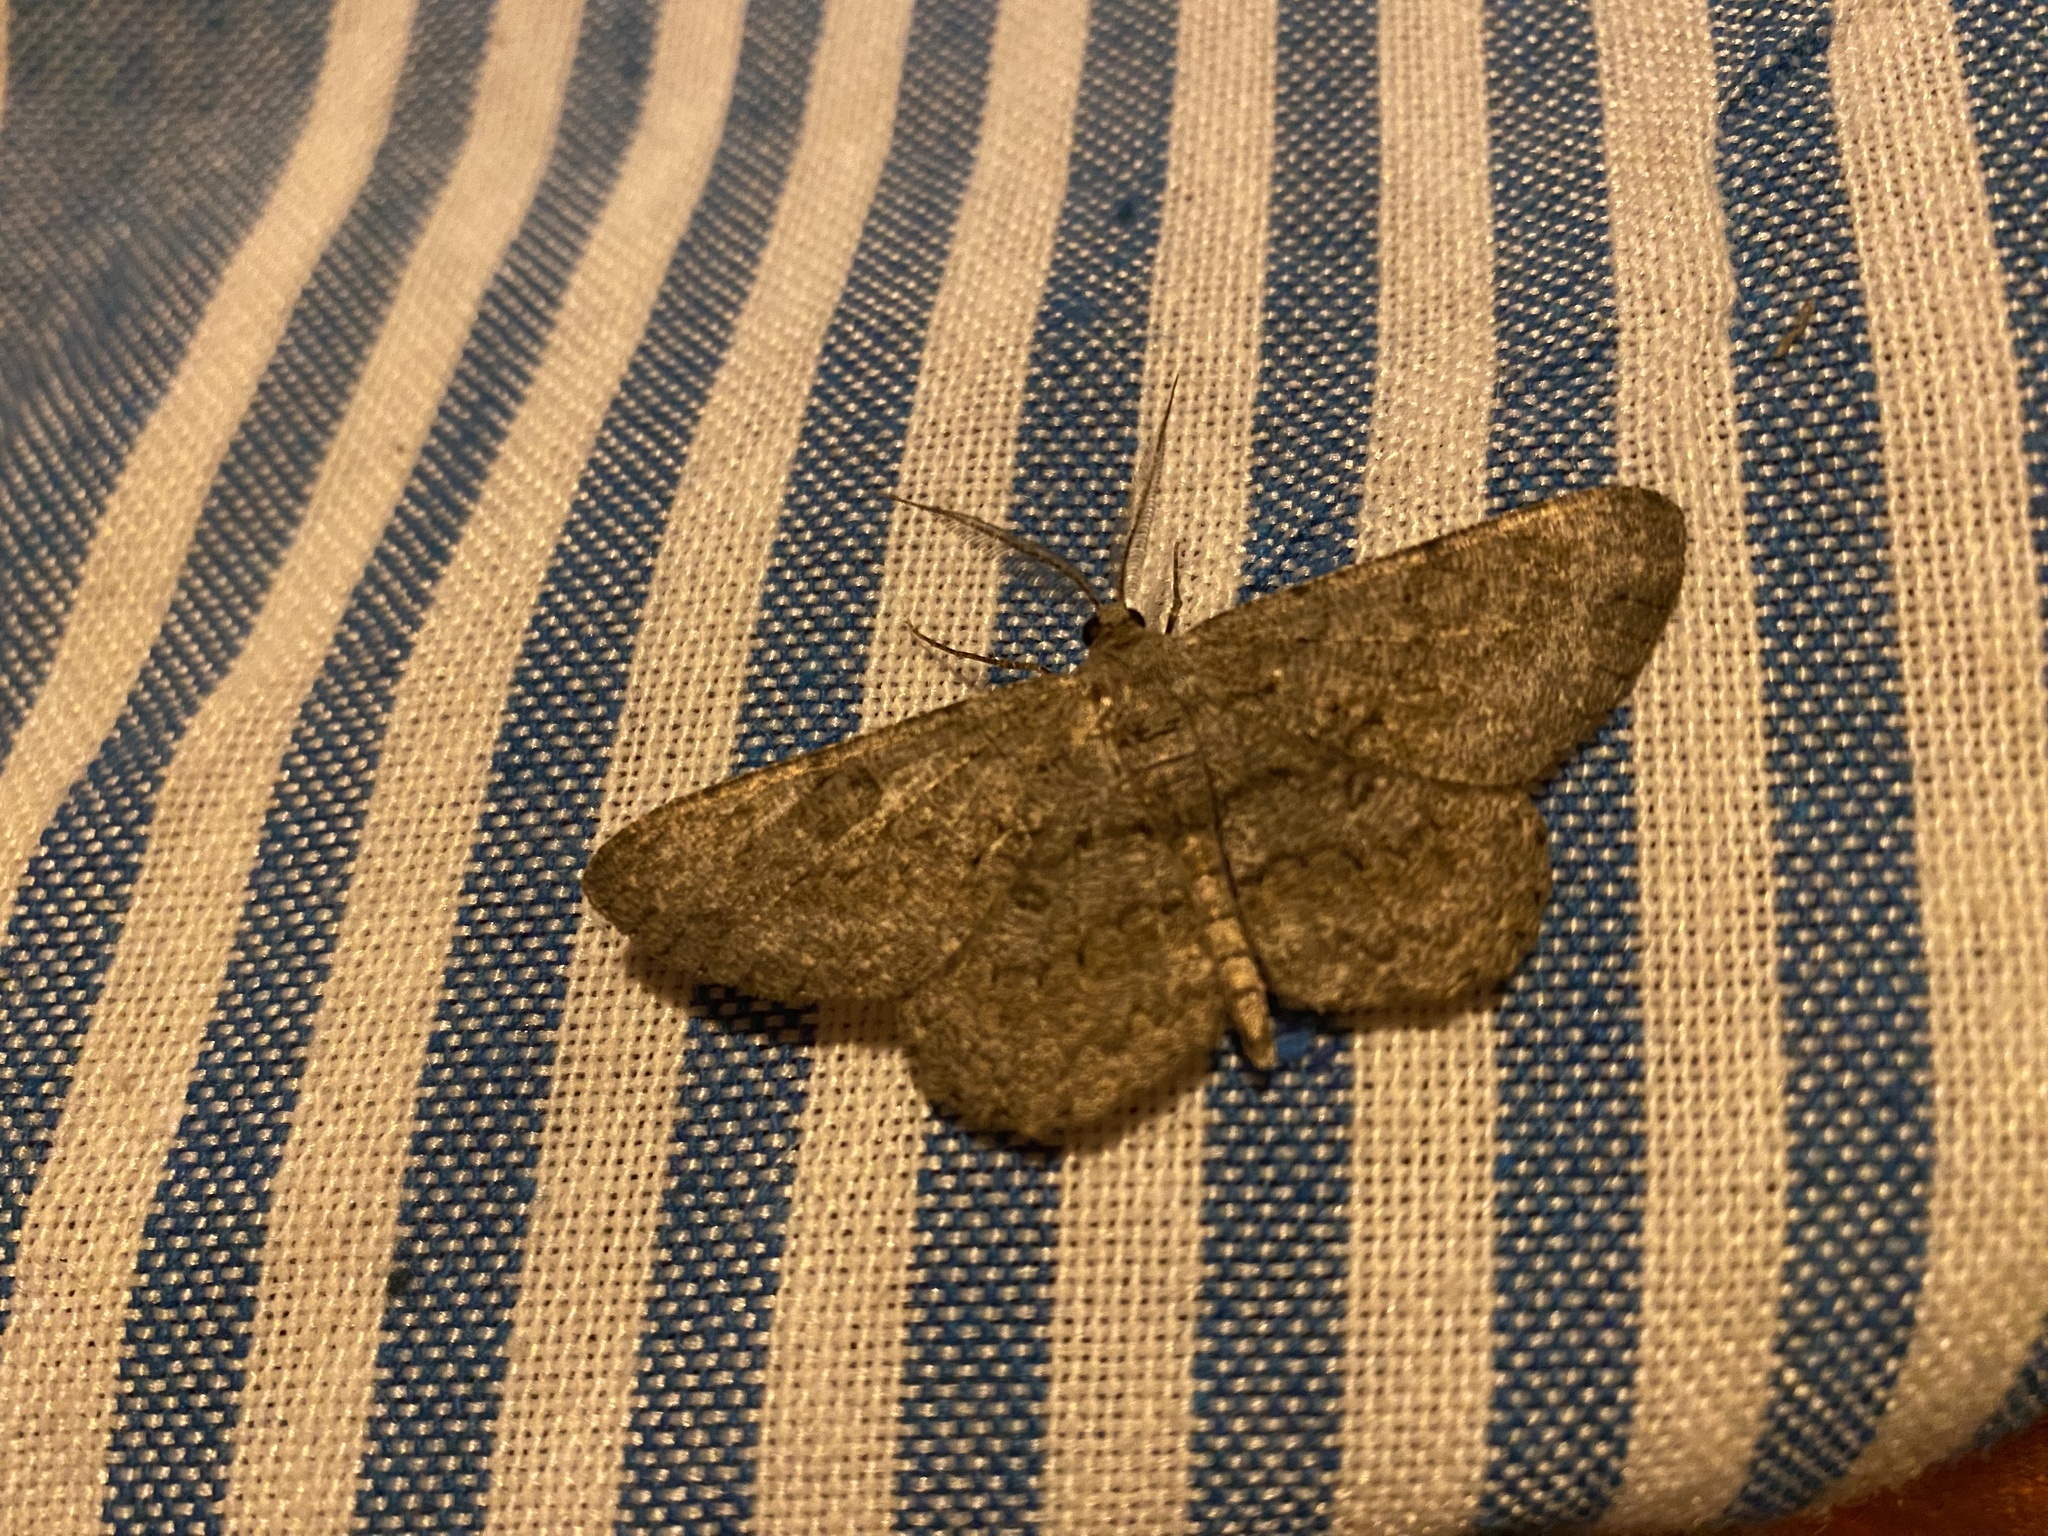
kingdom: Animalia
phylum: Arthropoda
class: Insecta
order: Lepidoptera
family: Geometridae
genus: Hypomecis
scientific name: Hypomecis punctinalis
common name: Pale oak beauty
